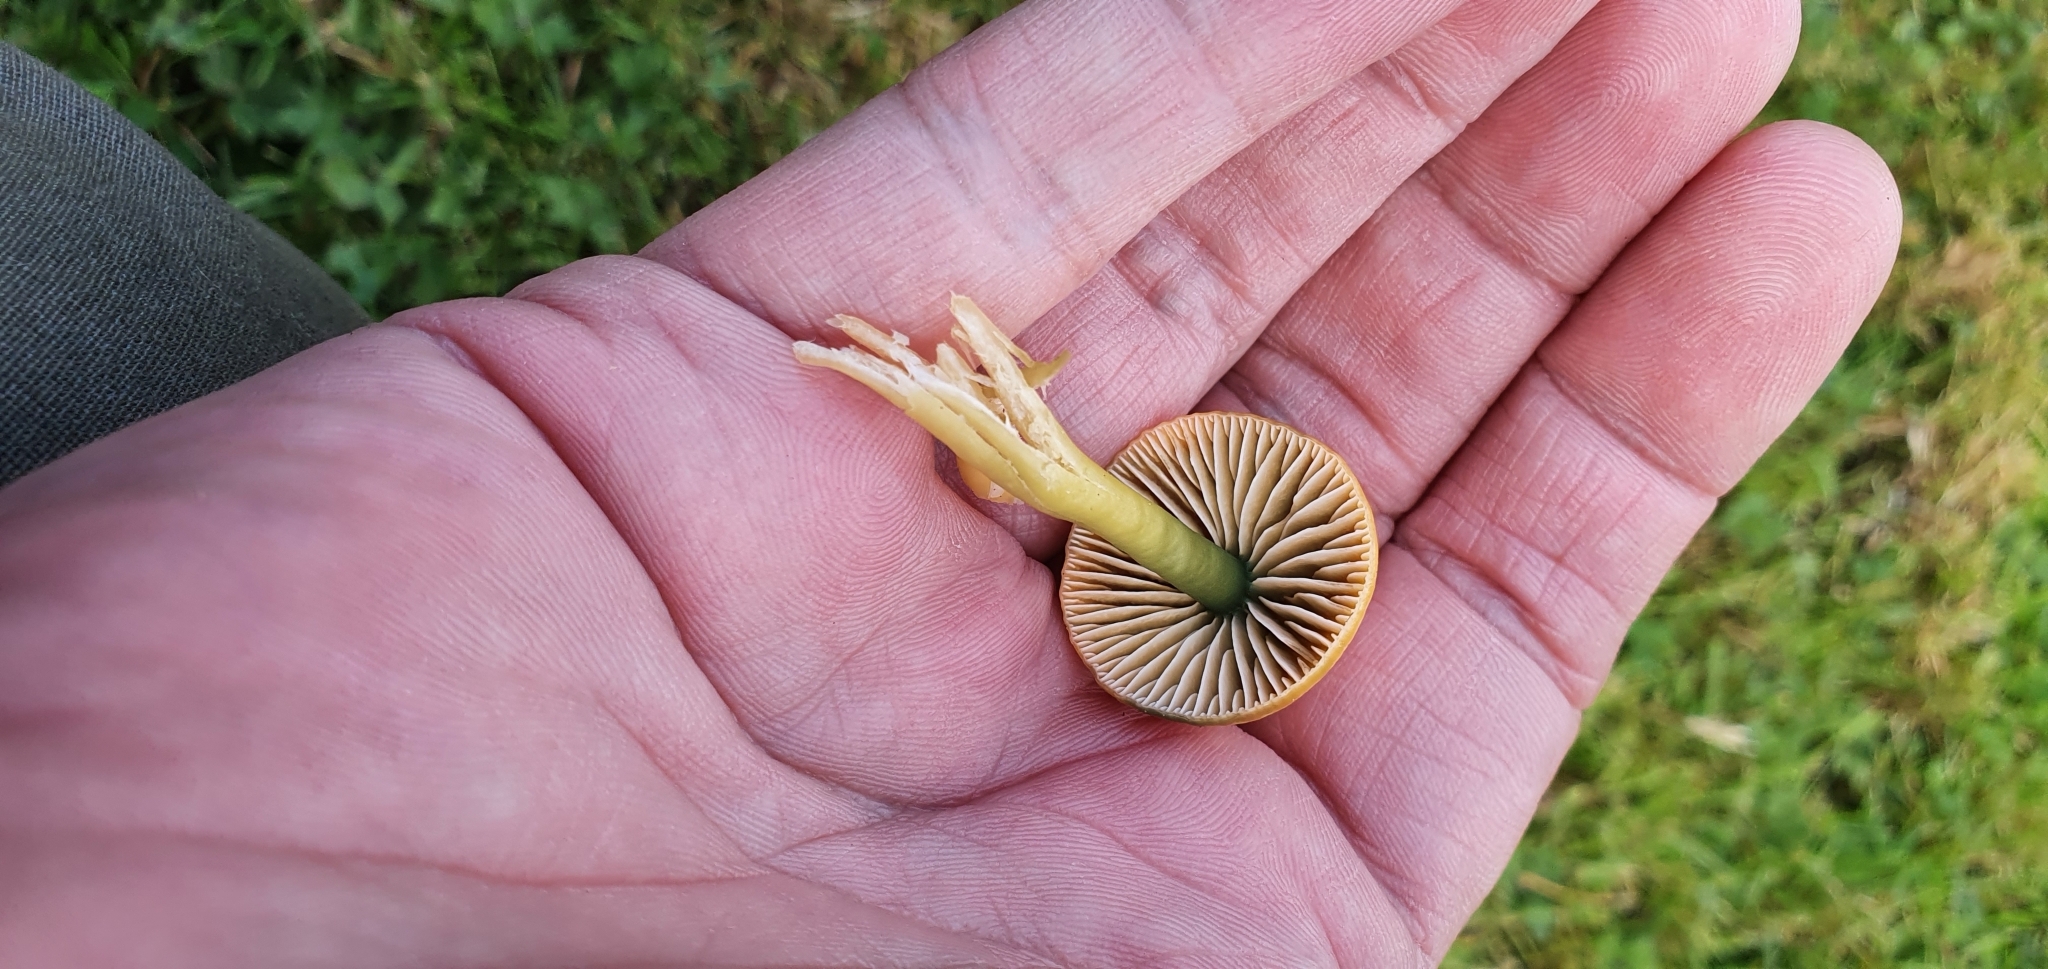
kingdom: Fungi
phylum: Basidiomycota
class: Agaricomycetes
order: Agaricales
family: Hygrophoraceae
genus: Gliophorus
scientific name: Gliophorus psittacinus
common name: Parrot wax-cap
